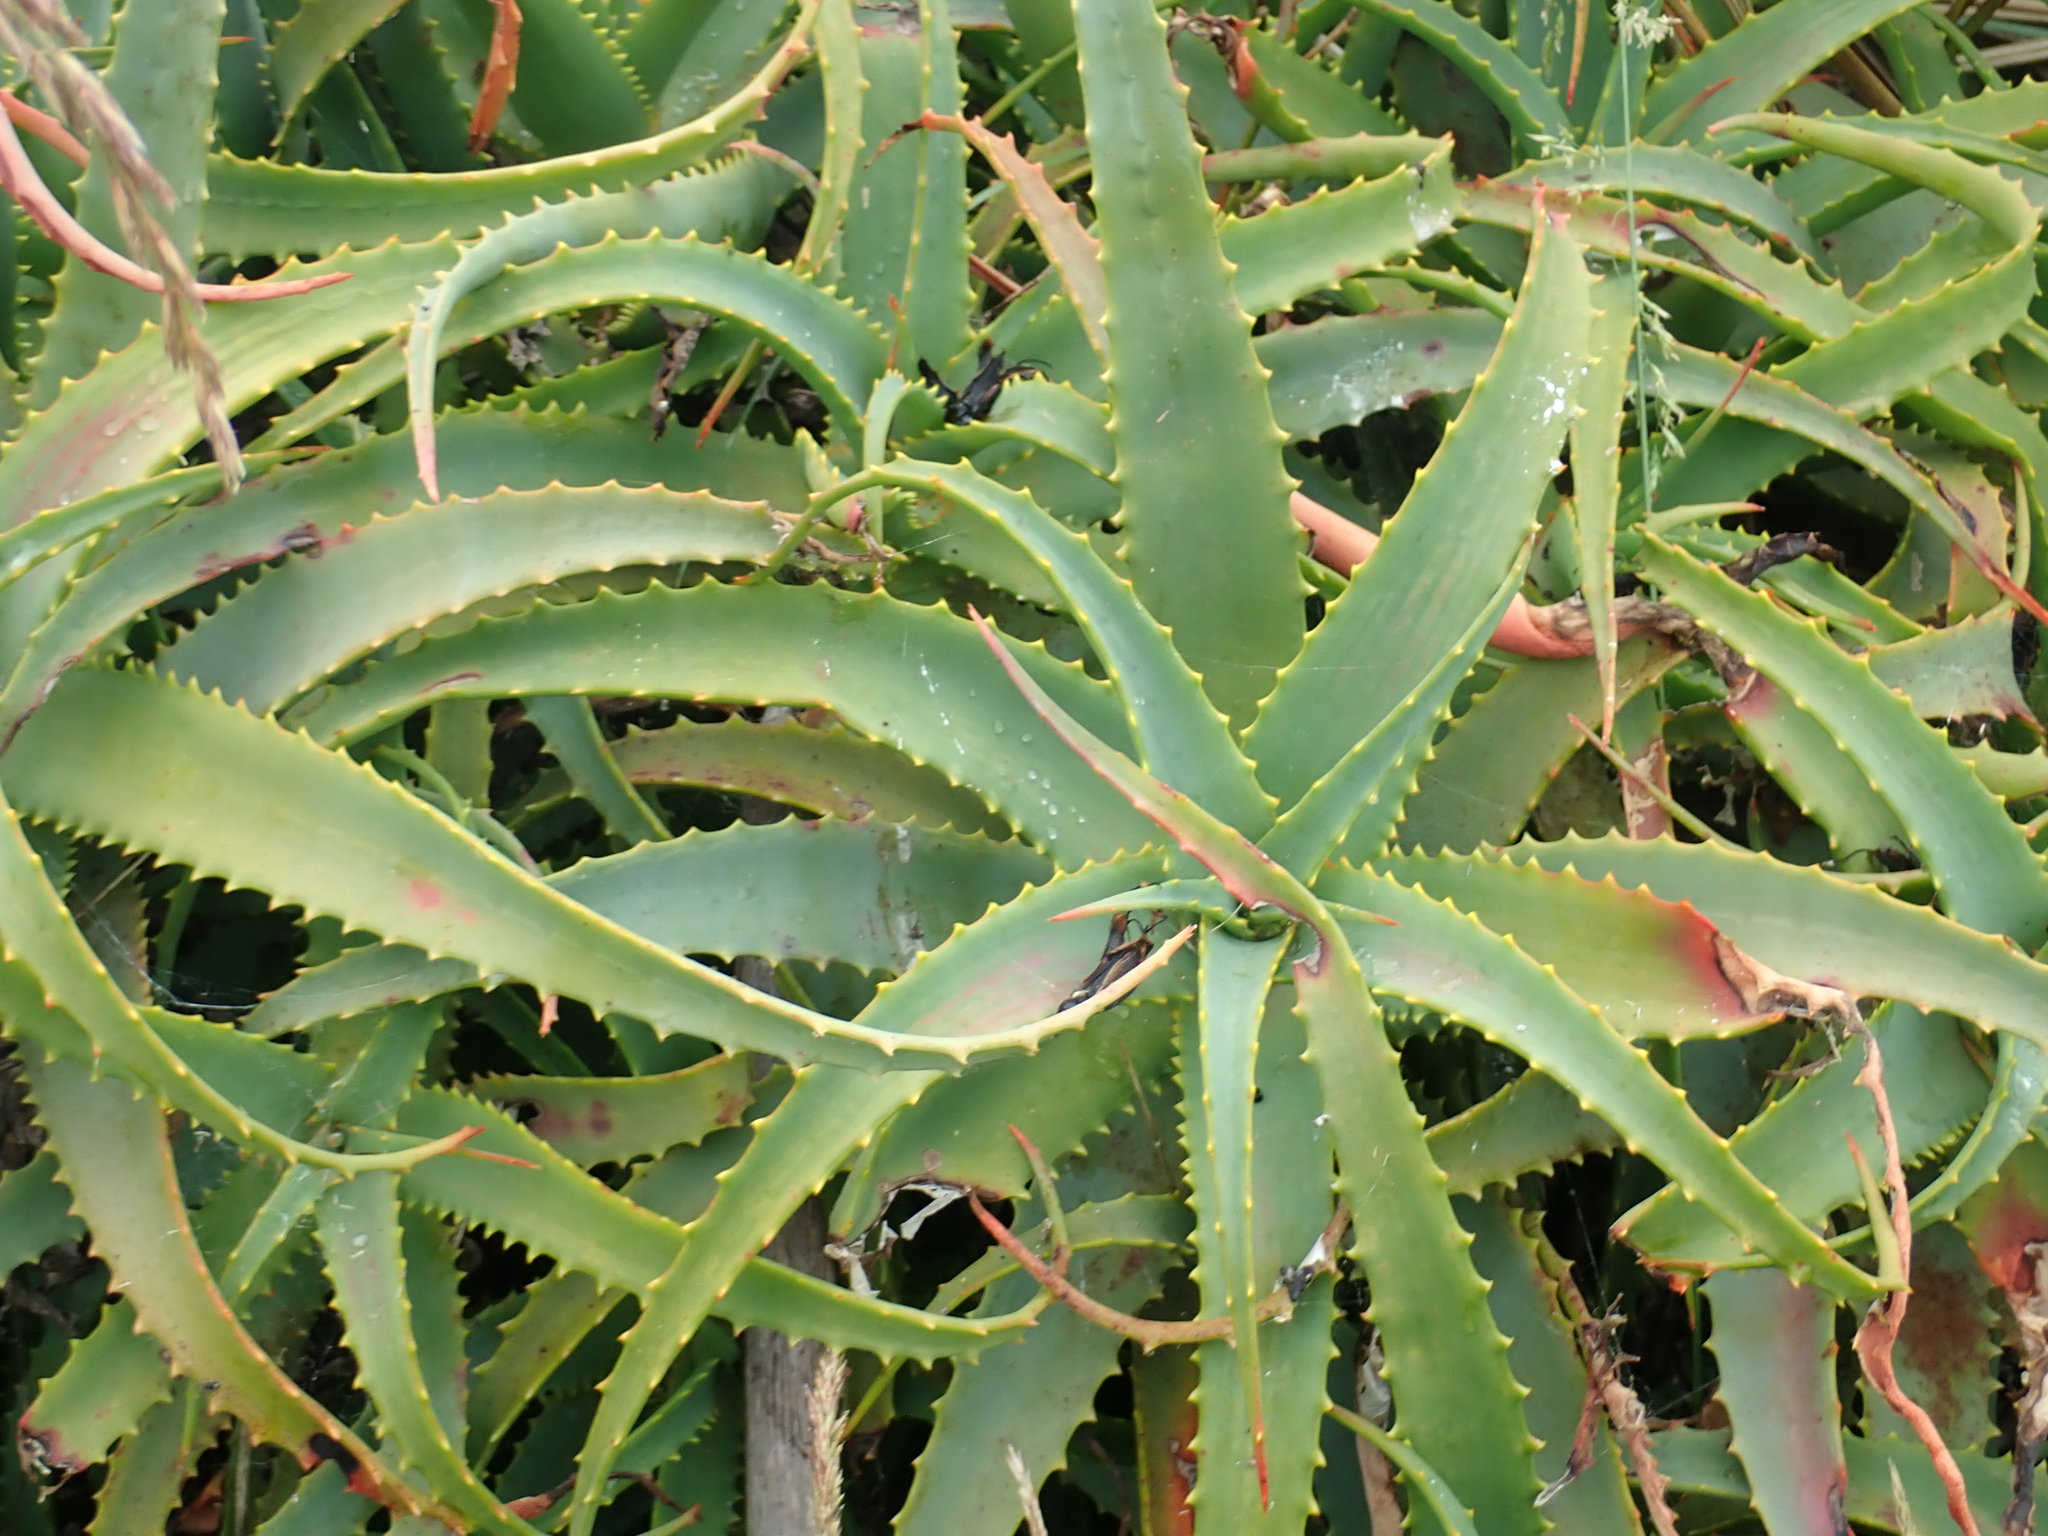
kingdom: Plantae
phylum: Tracheophyta
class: Liliopsida
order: Asparagales
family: Asphodelaceae
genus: Aloe
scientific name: Aloe arborescens
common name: Candelabra aloe
